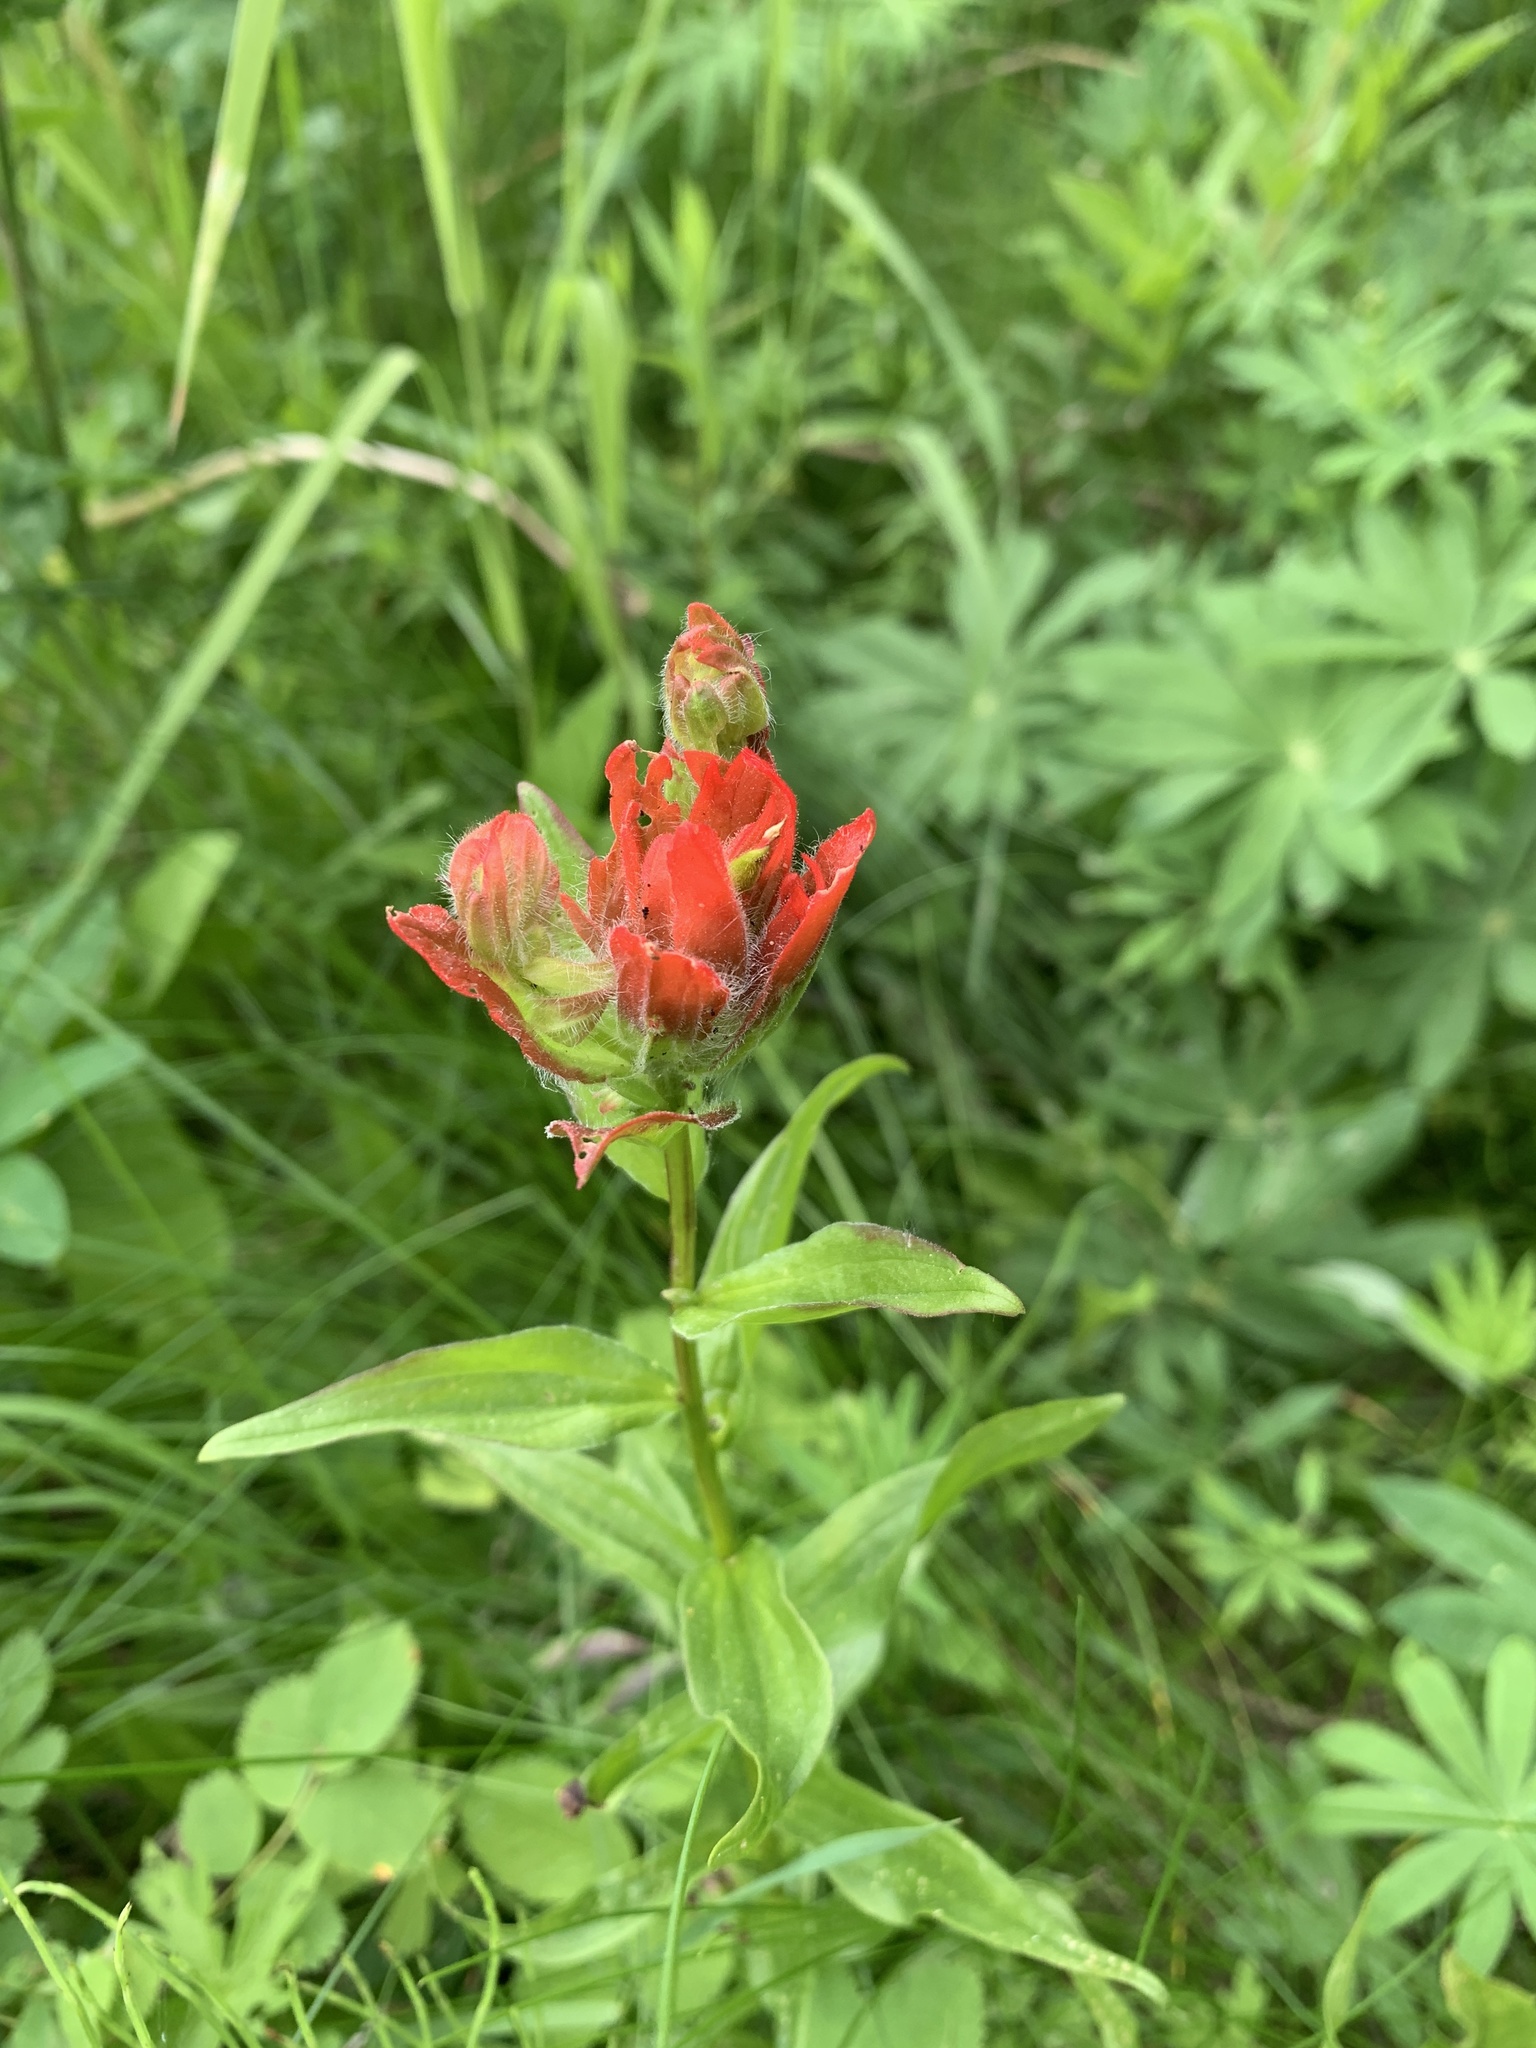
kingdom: Plantae
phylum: Tracheophyta
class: Magnoliopsida
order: Lamiales
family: Orobanchaceae
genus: Castilleja
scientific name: Castilleja miniata
